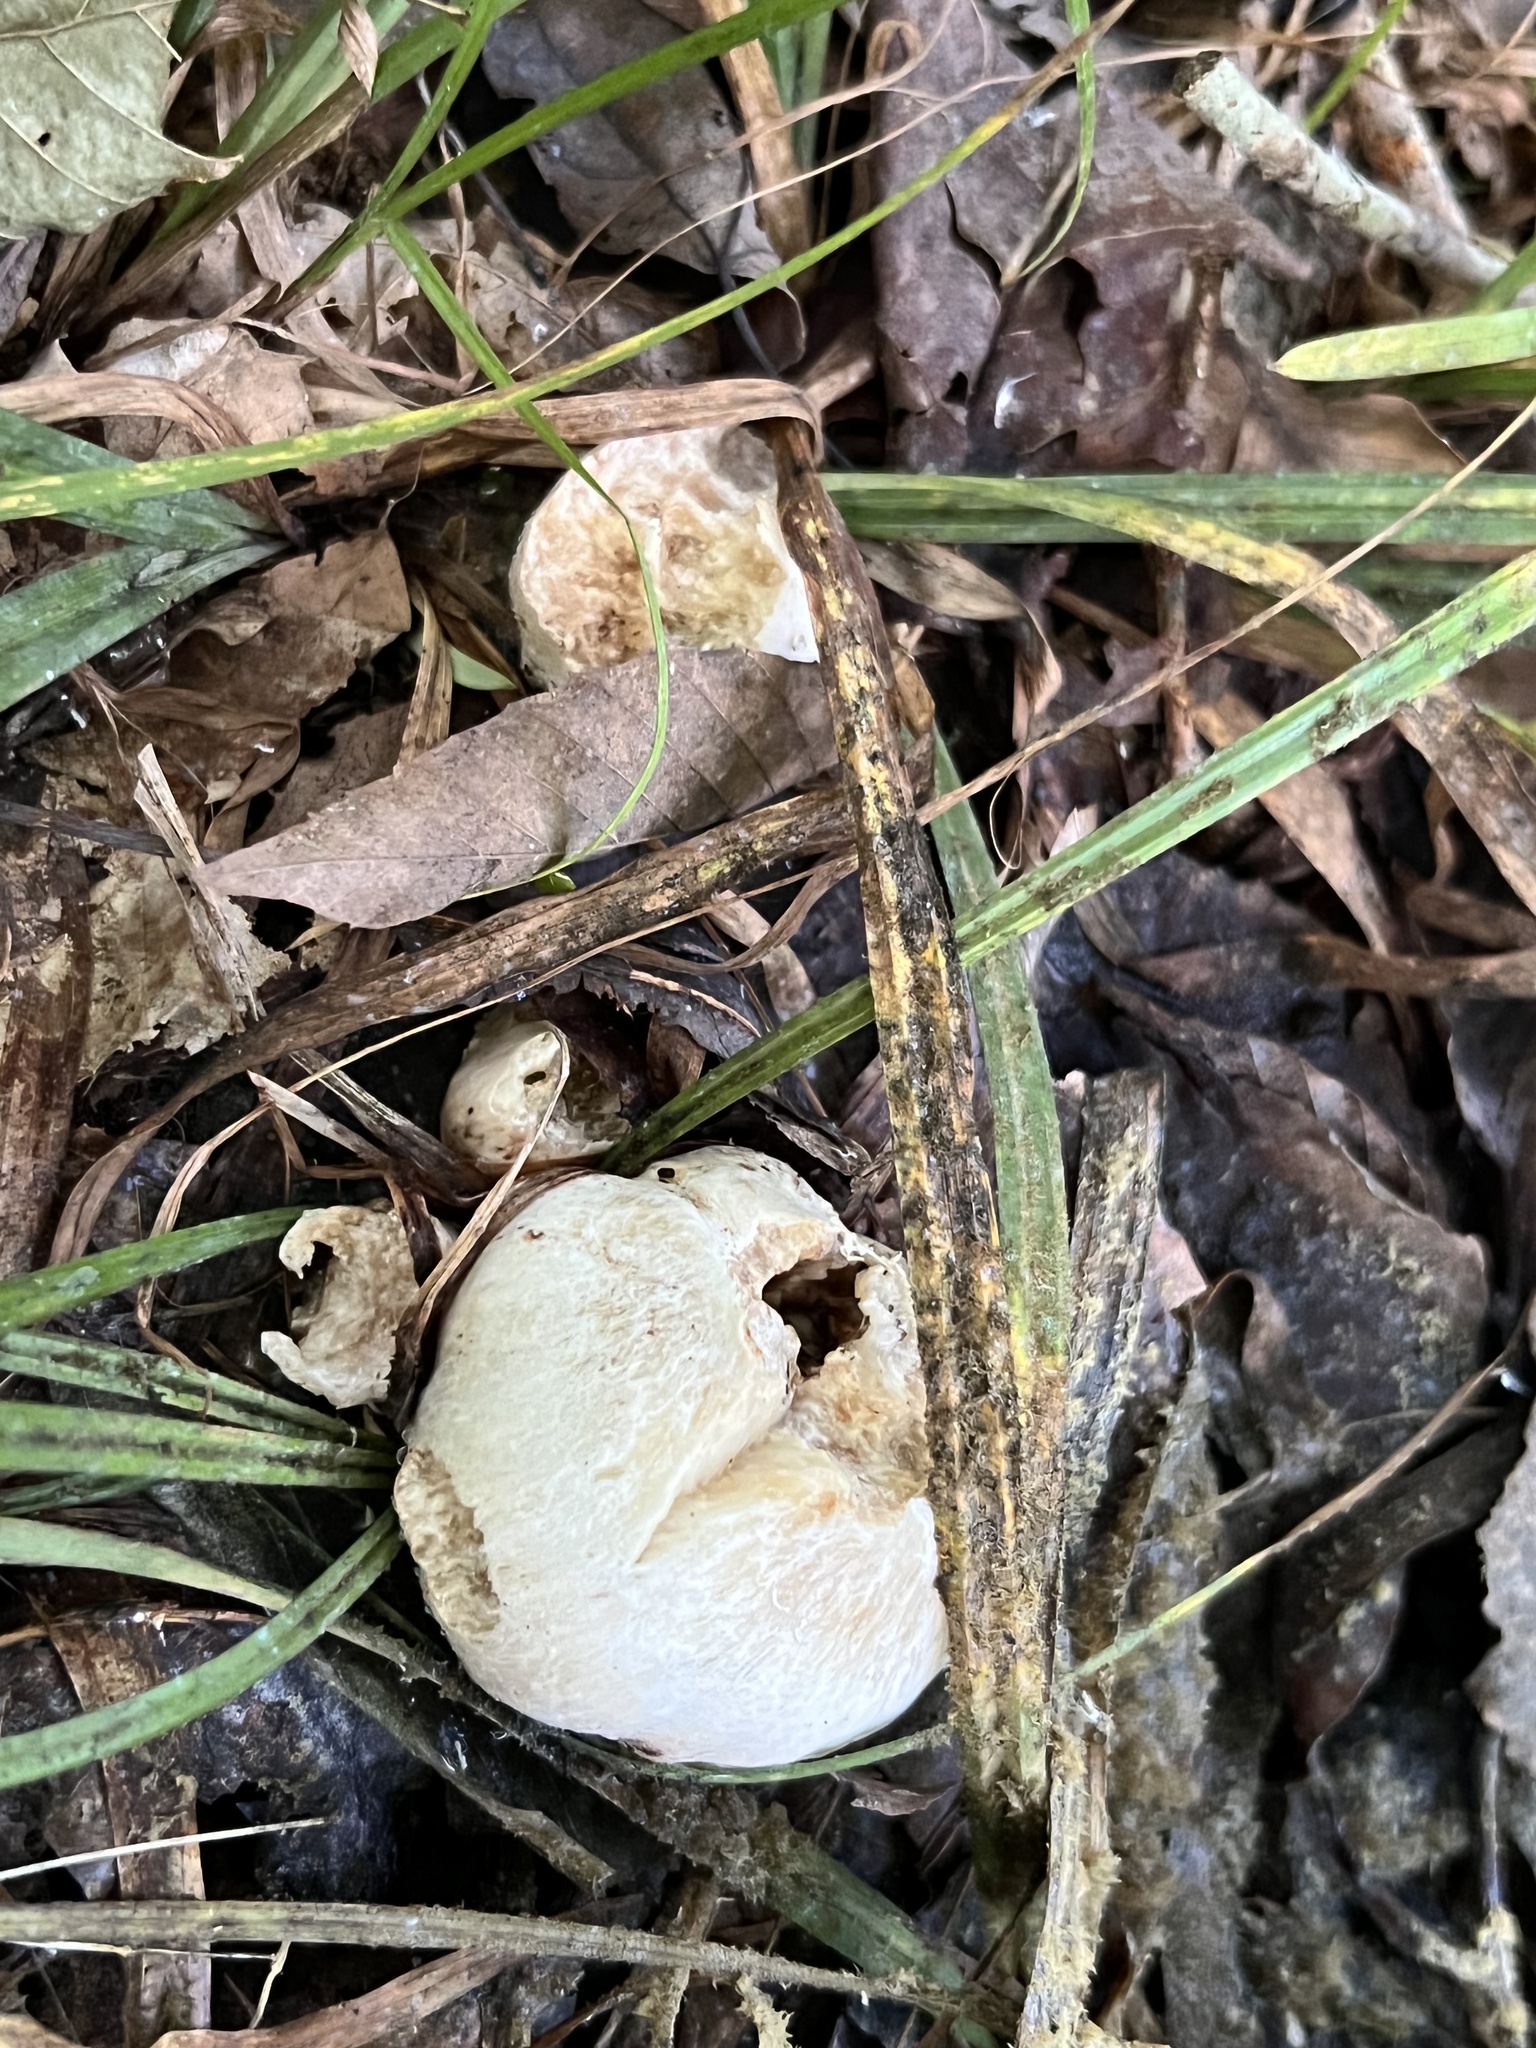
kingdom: Fungi
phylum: Basidiomycota
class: Agaricomycetes
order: Agaricales
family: Entolomataceae
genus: Entoloma
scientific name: Entoloma abortivum
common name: Aborted entoloma
